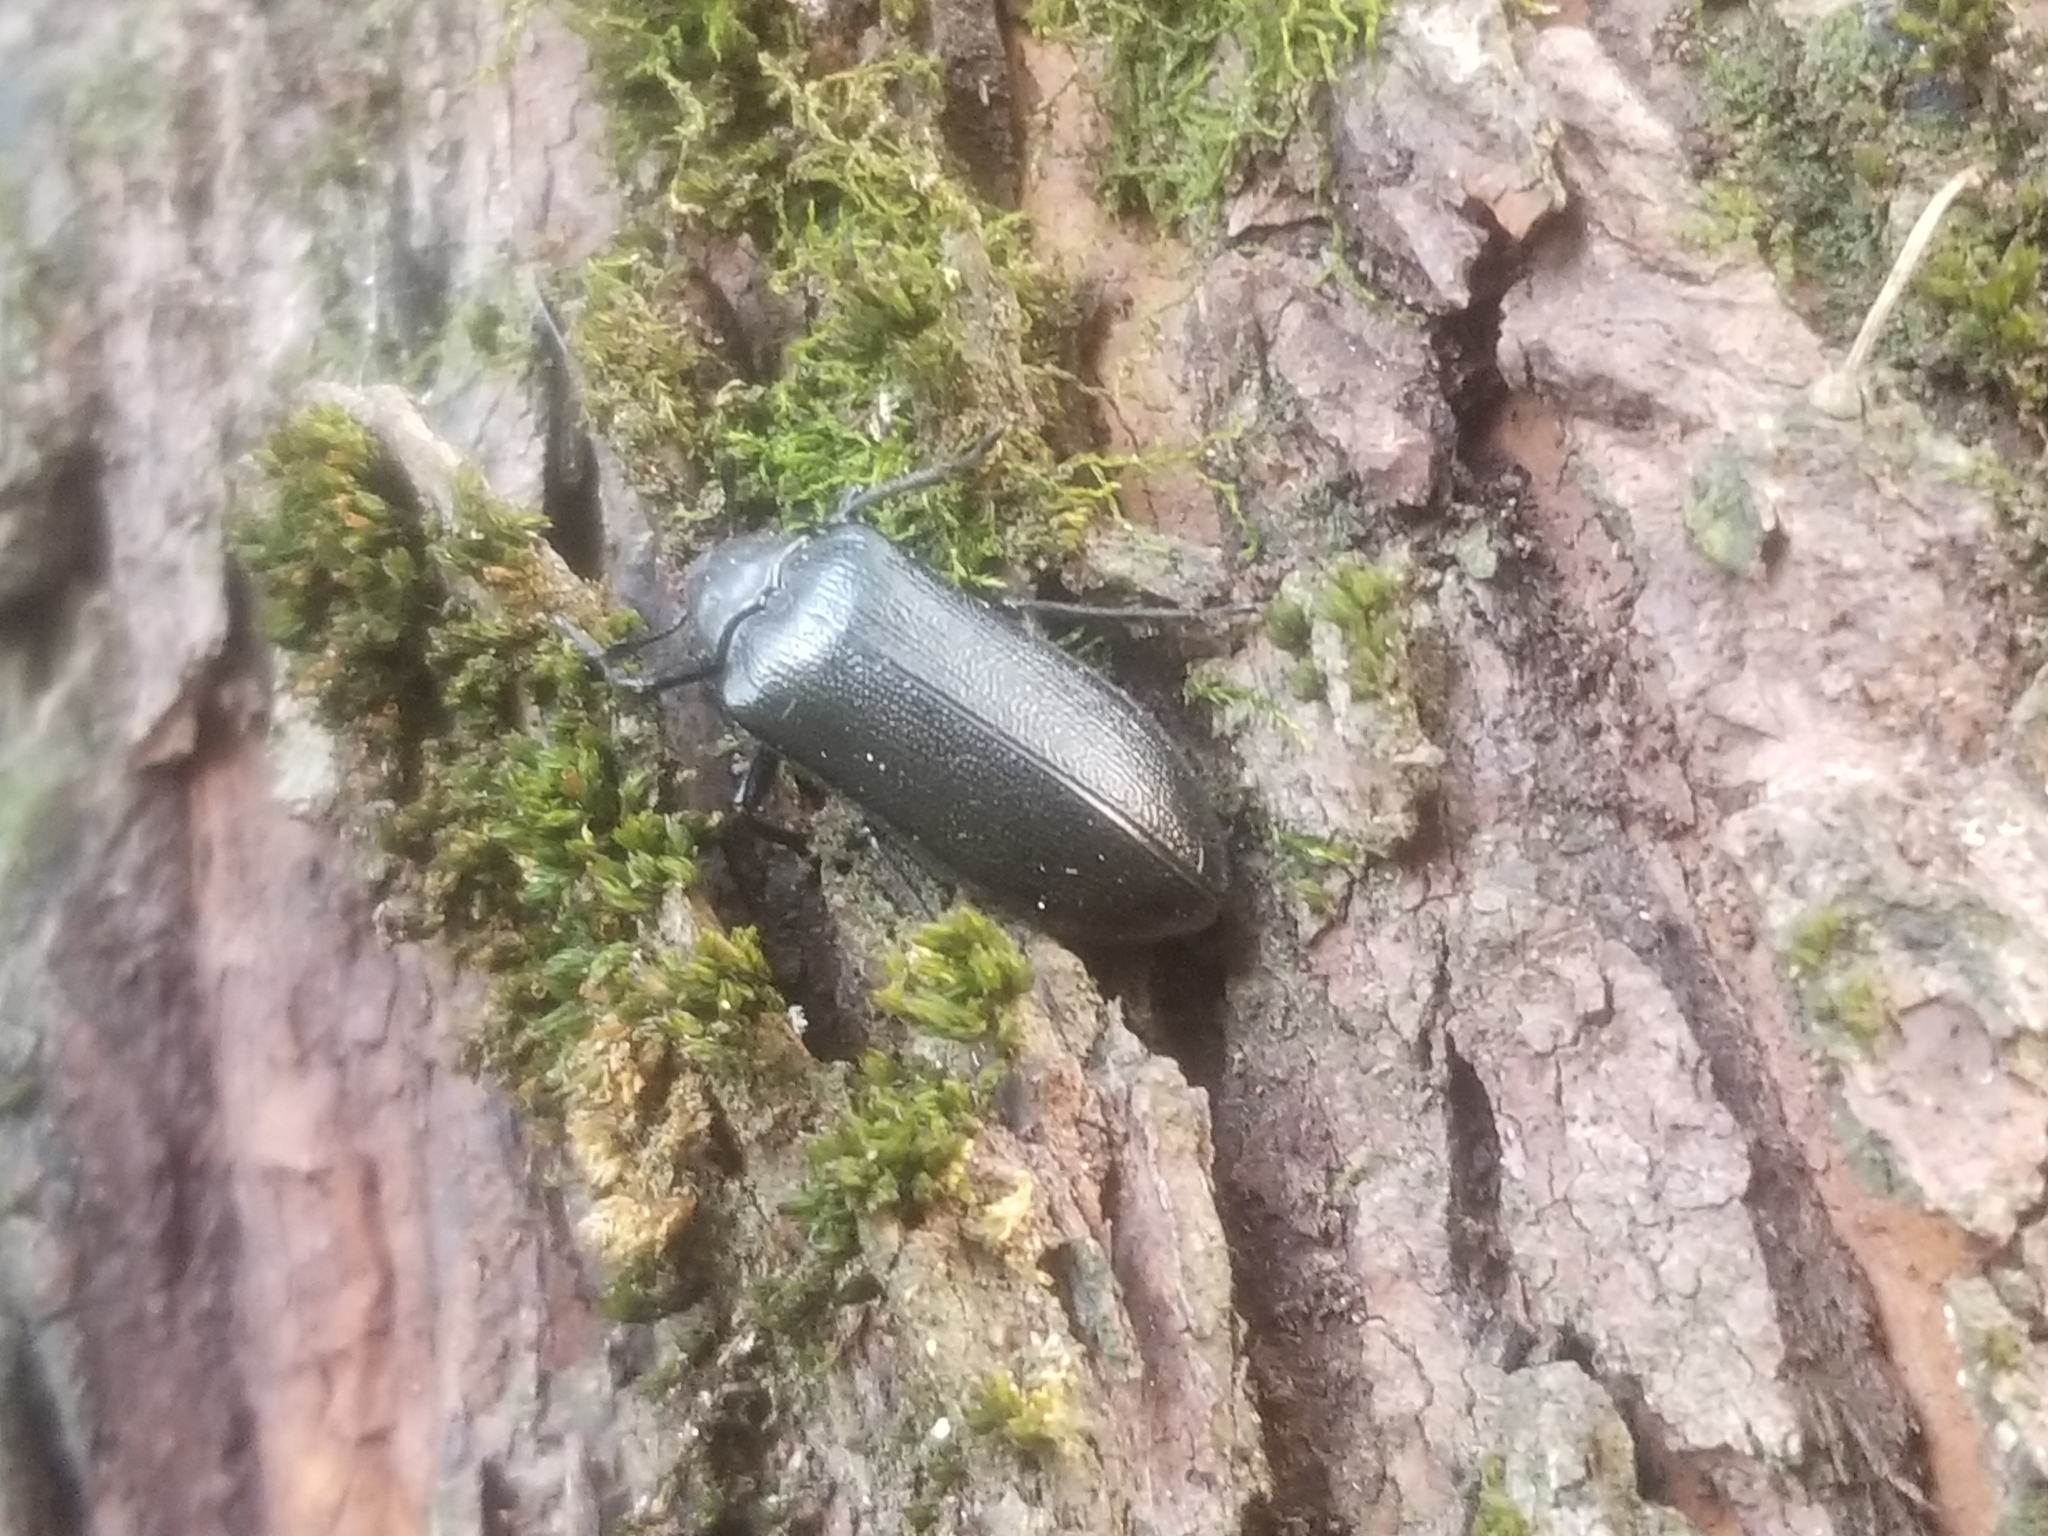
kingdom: Animalia
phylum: Arthropoda
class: Insecta
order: Coleoptera
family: Rhipiceridae
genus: Sandalus
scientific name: Sandalus niger
